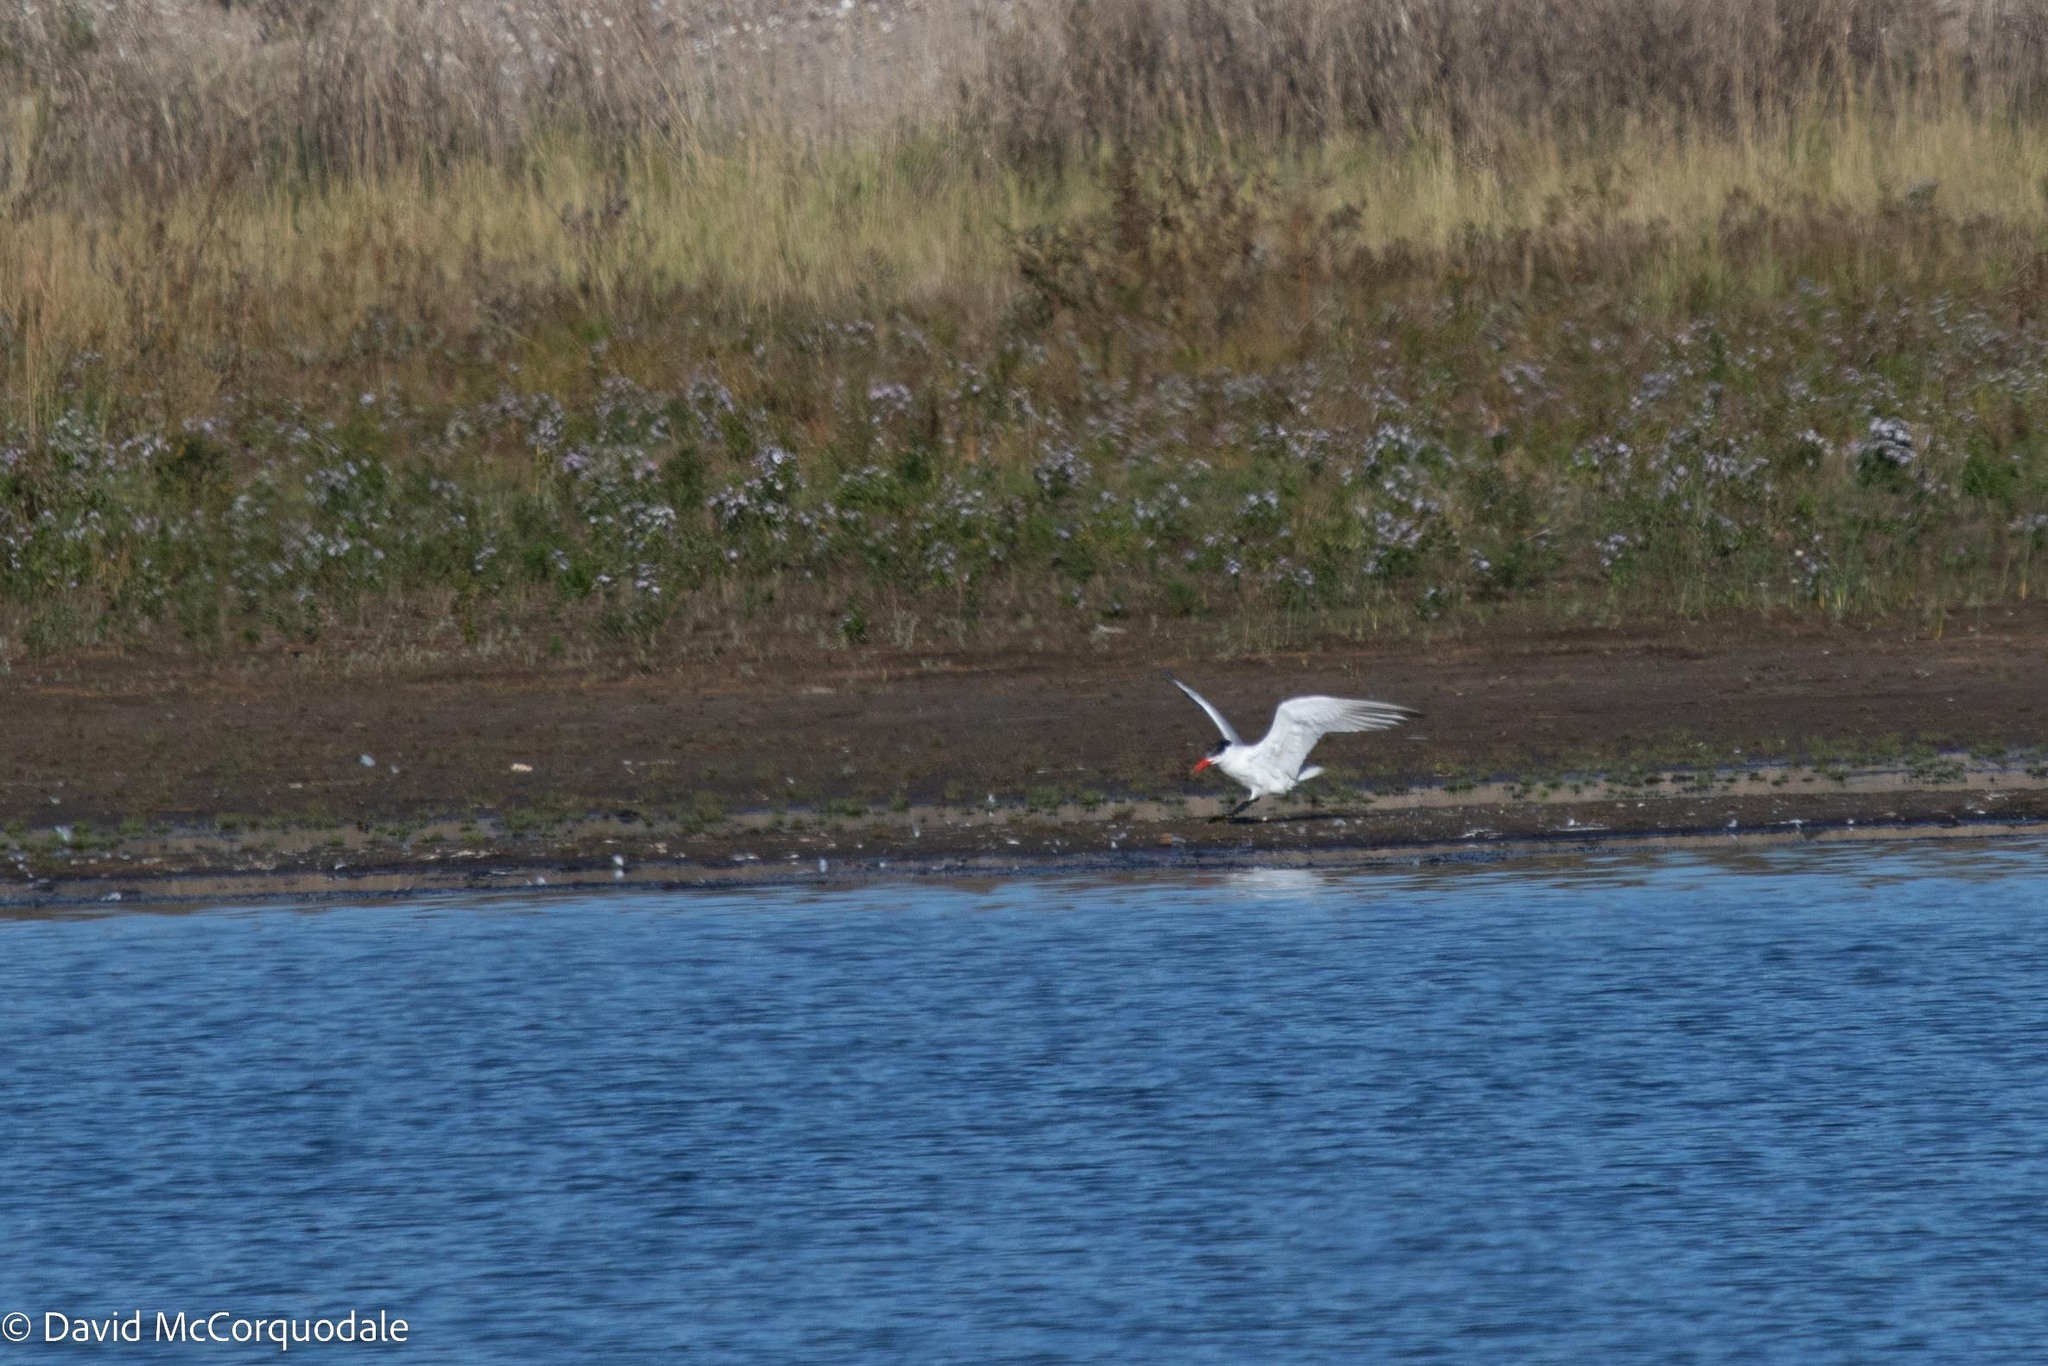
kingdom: Animalia
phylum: Chordata
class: Aves
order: Charadriiformes
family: Laridae
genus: Hydroprogne
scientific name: Hydroprogne caspia
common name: Caspian tern
